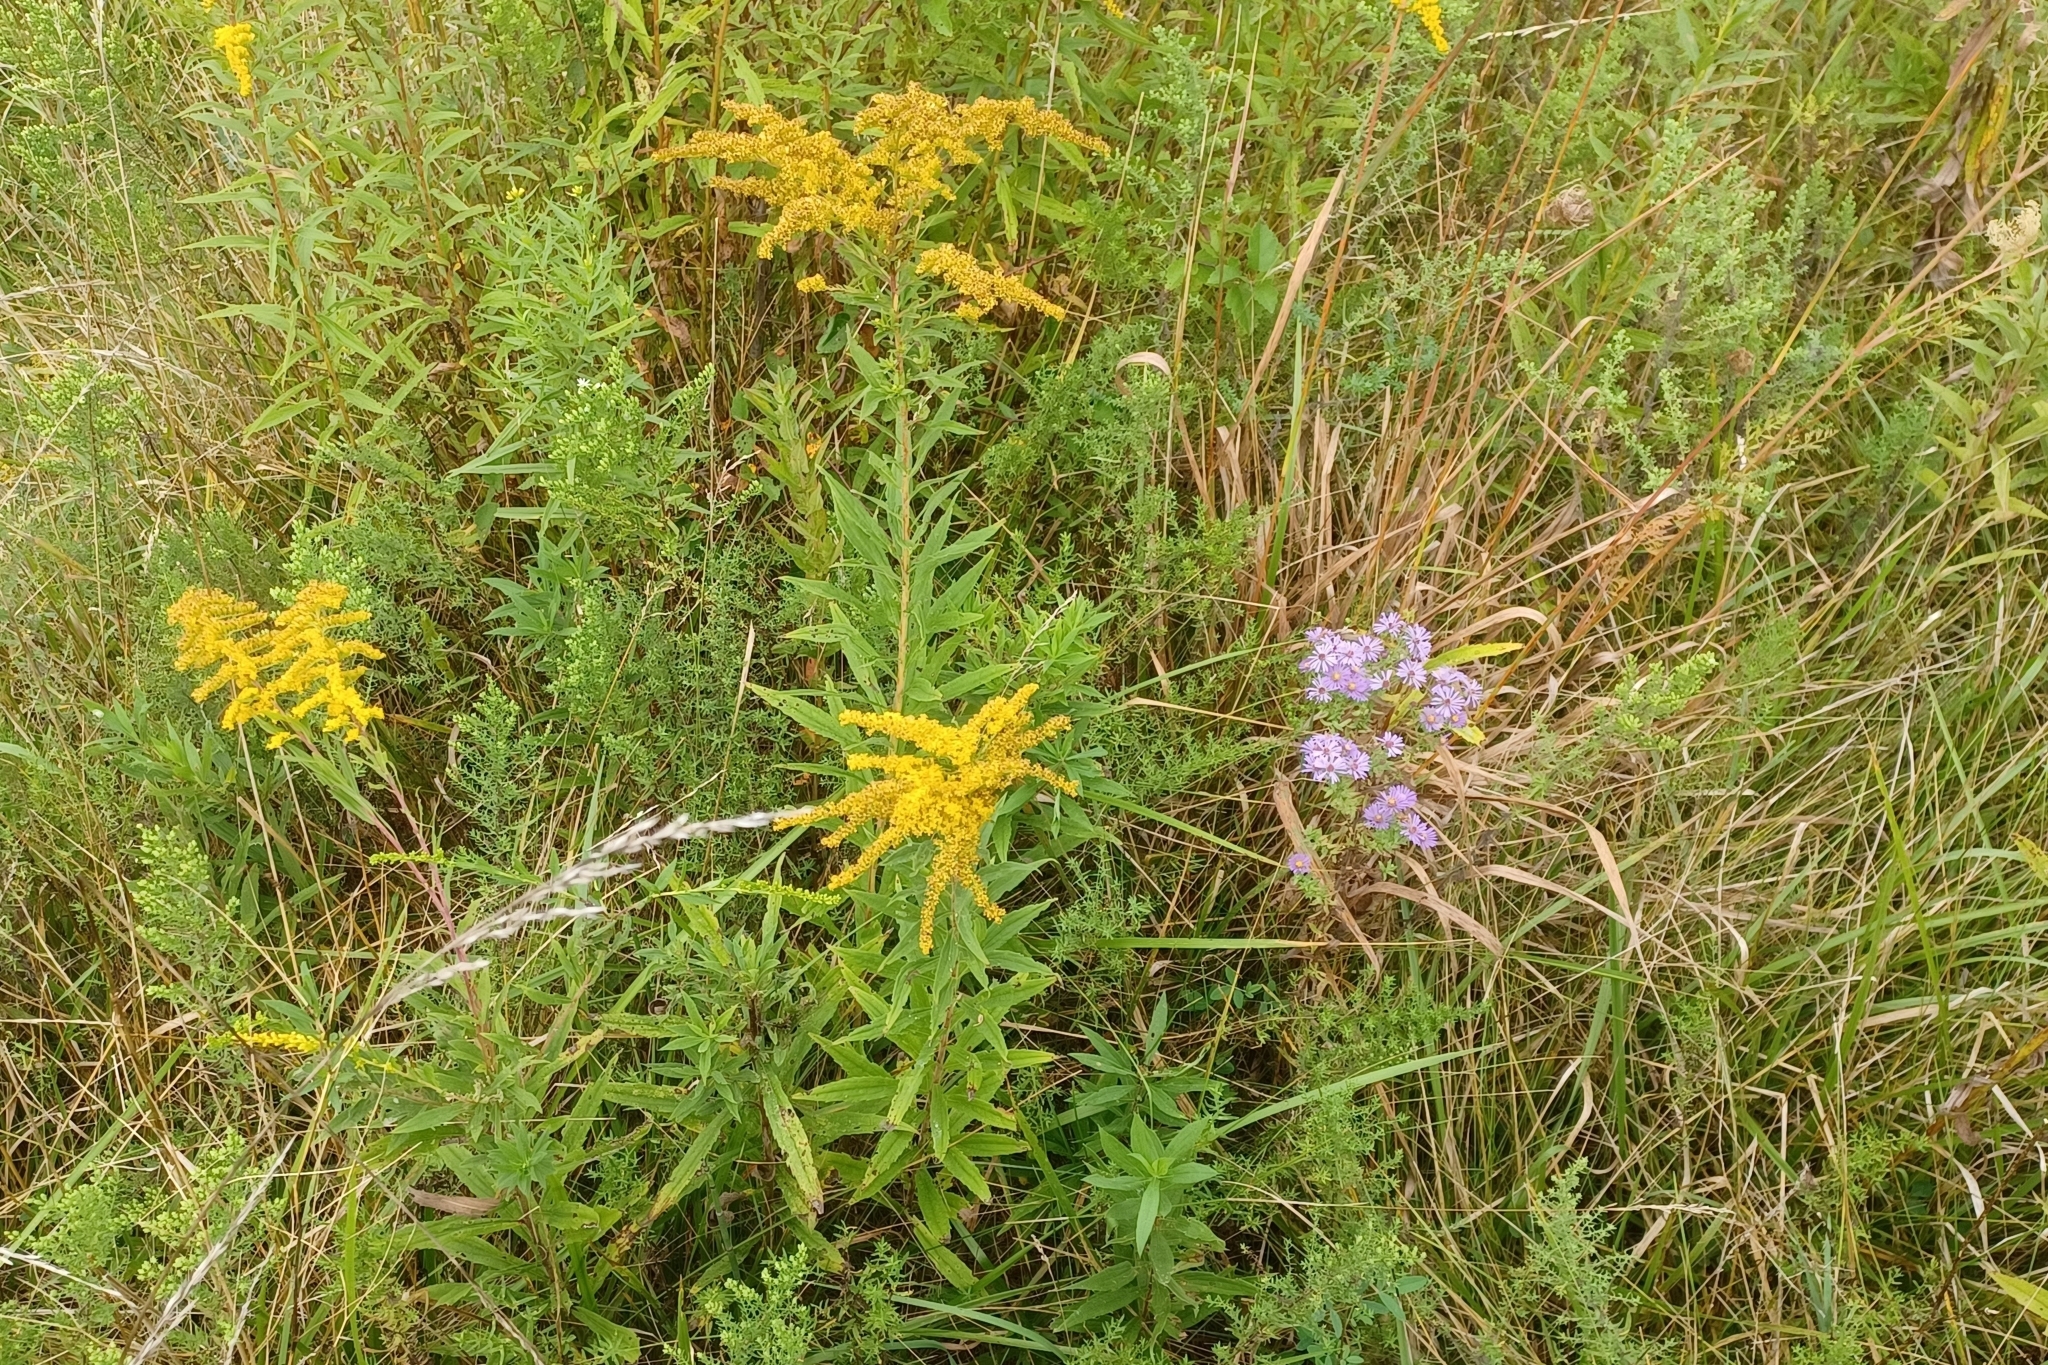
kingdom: Plantae
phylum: Tracheophyta
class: Magnoliopsida
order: Asterales
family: Asteraceae
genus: Symphyotrichum
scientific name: Symphyotrichum amethystinum
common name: Amethyst aster
